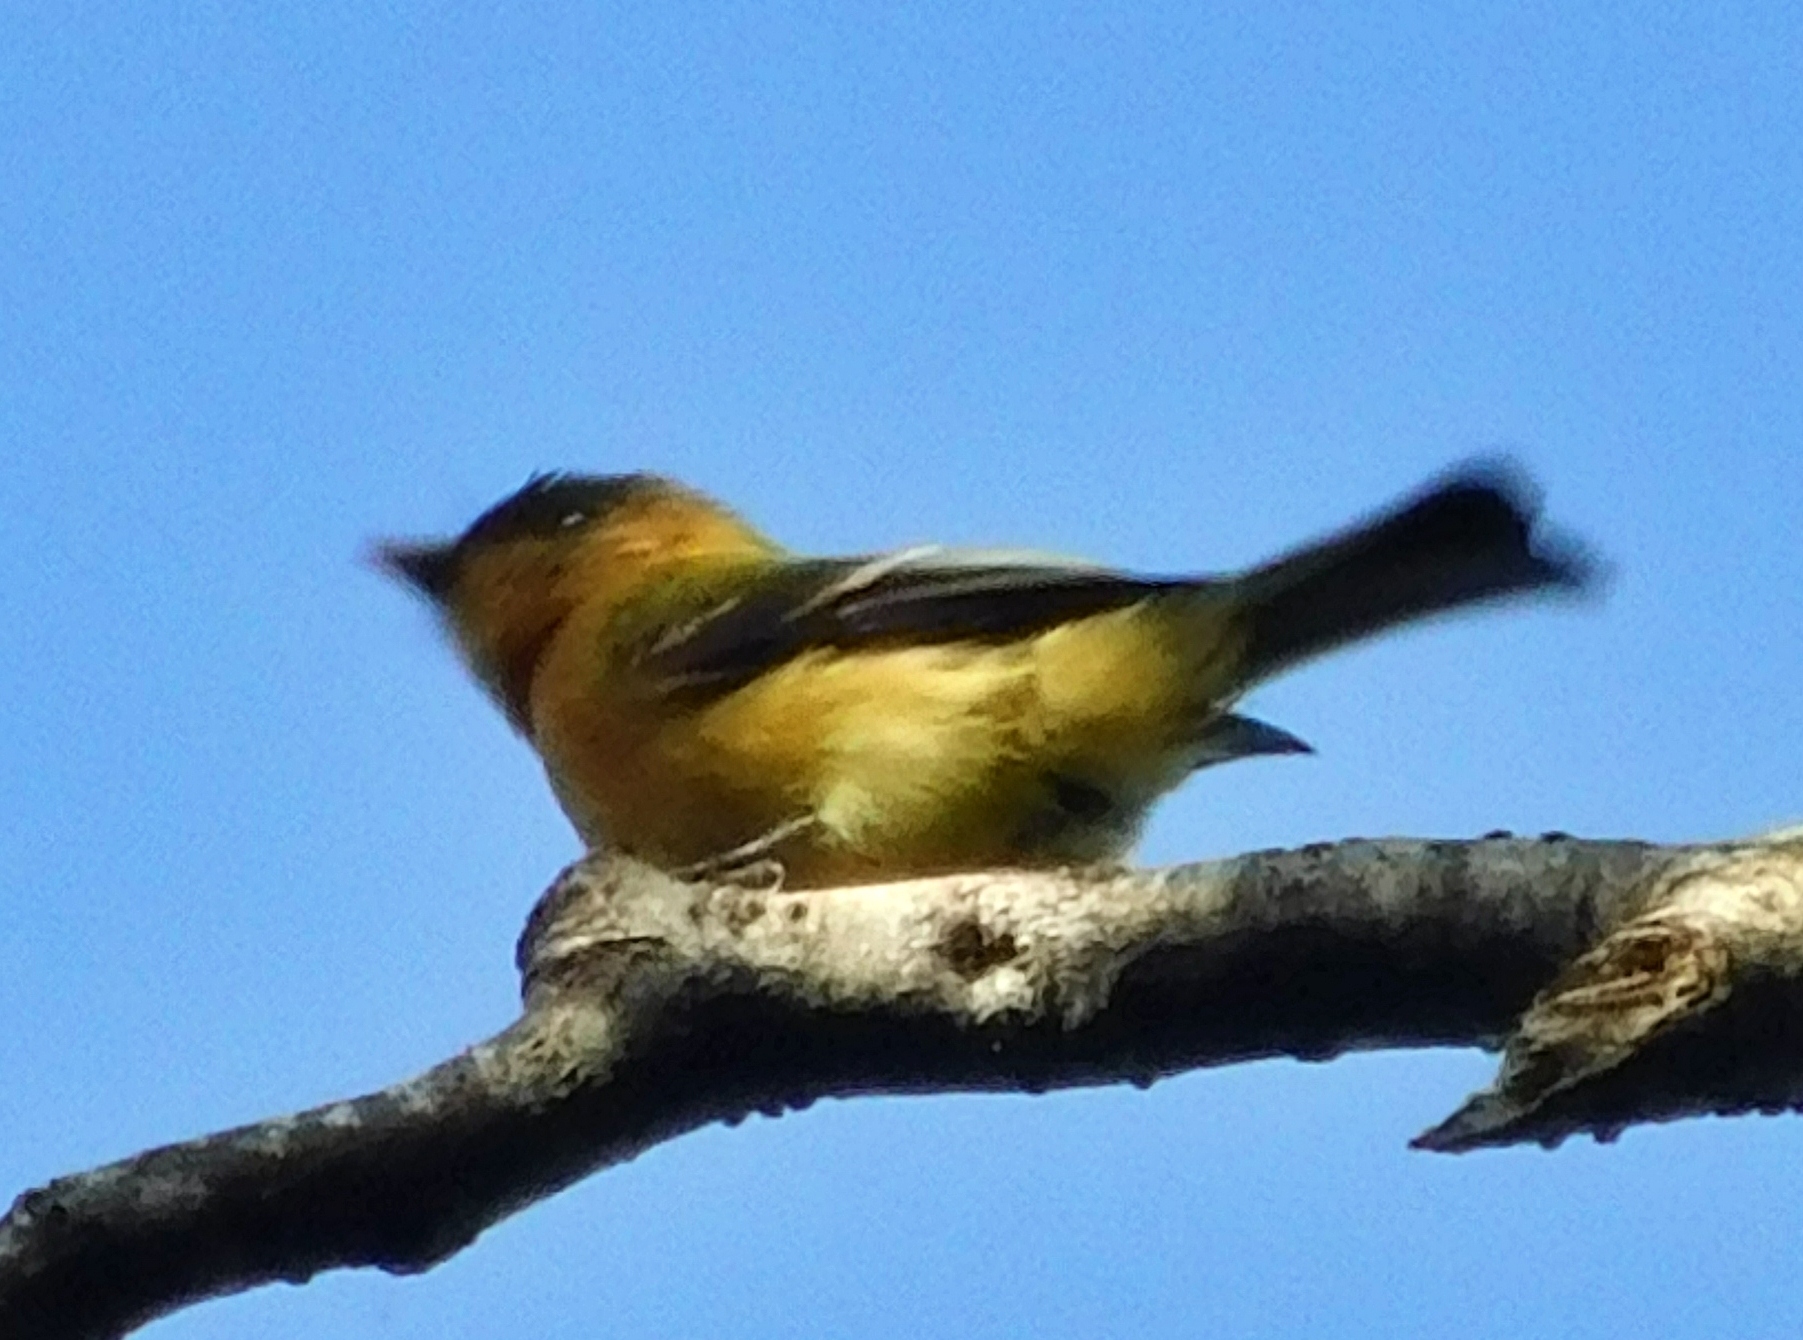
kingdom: Animalia
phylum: Chordata
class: Aves
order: Passeriformes
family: Tyrannidae
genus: Mitrephanes
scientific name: Mitrephanes phaeocercus
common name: Northern tufted flycatcher
